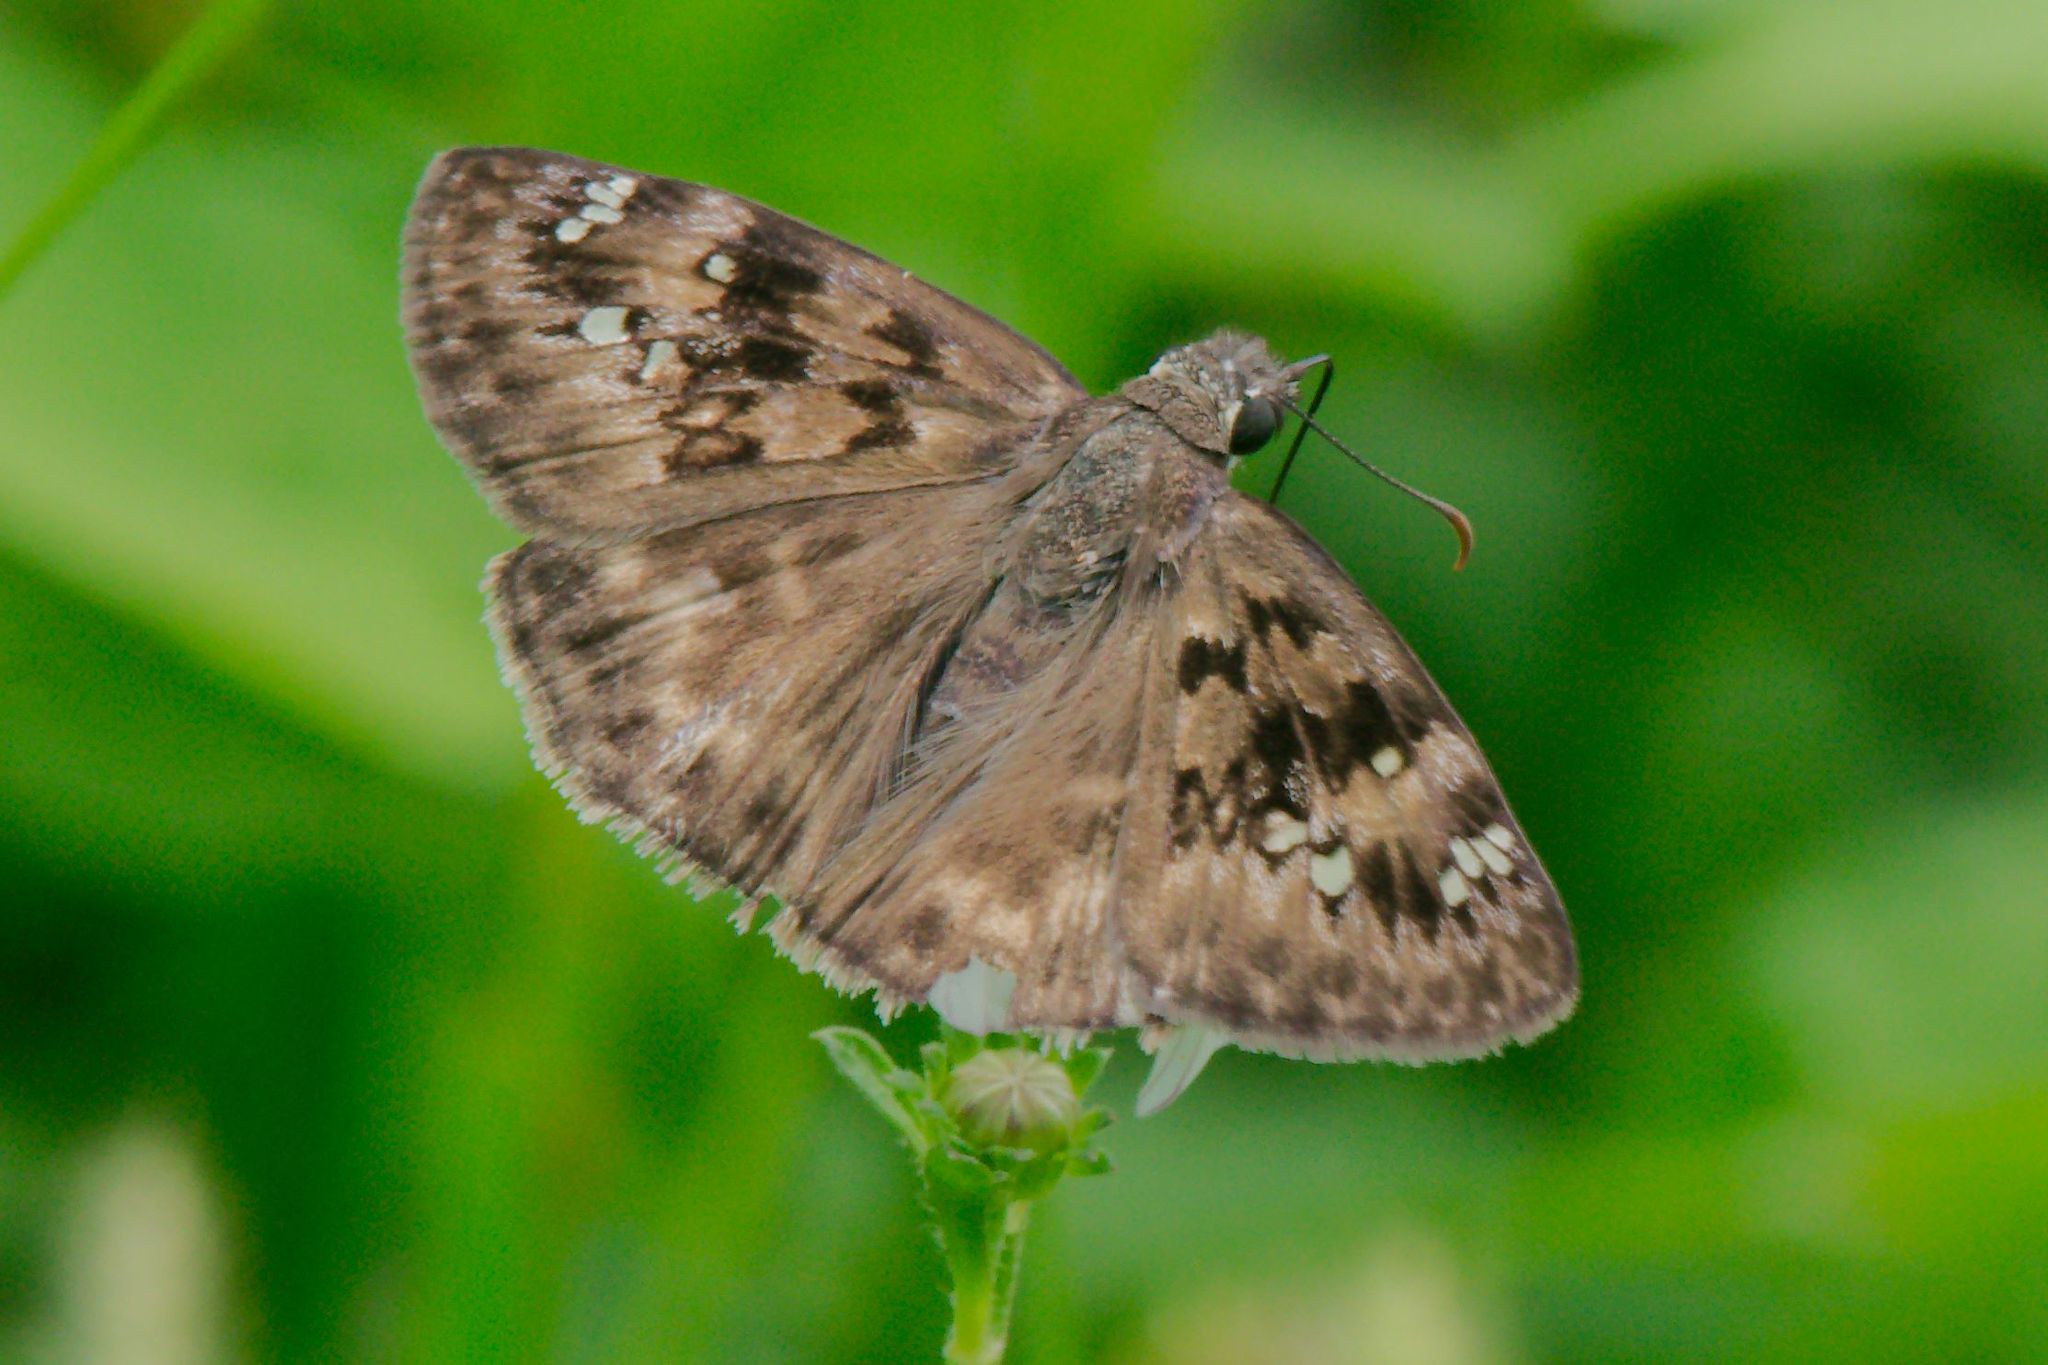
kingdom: Animalia
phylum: Arthropoda
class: Insecta
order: Lepidoptera
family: Hesperiidae
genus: Erynnis
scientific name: Erynnis horatius
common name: Horace's duskywing
